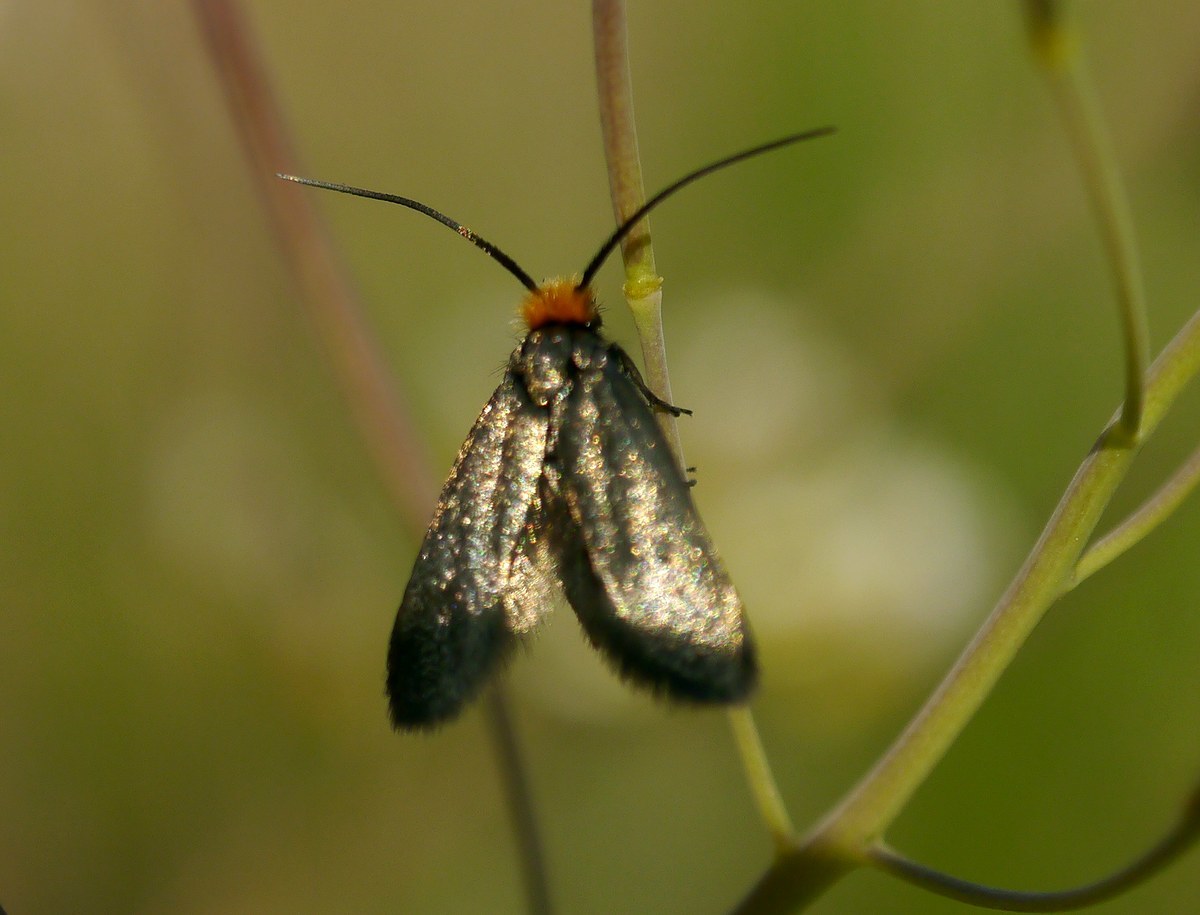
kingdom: Animalia
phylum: Arthropoda
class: Insecta
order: Lepidoptera
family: Adelidae
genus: Cauchas
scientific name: Cauchas rufifrontella
